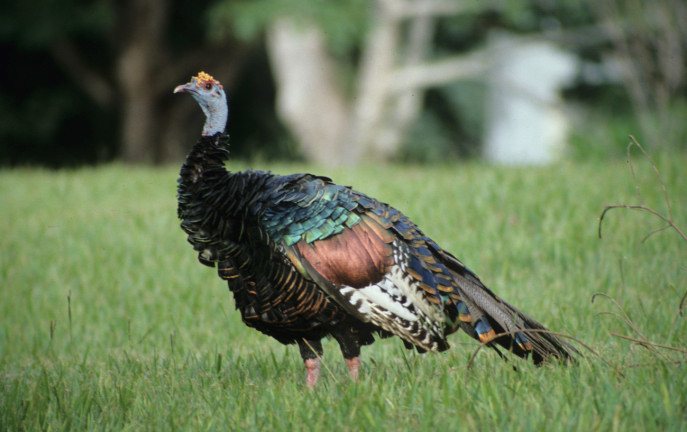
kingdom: Animalia
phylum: Chordata
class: Aves
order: Galliformes
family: Phasianidae
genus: Meleagris
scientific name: Meleagris ocellata
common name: Ocellated turkey
